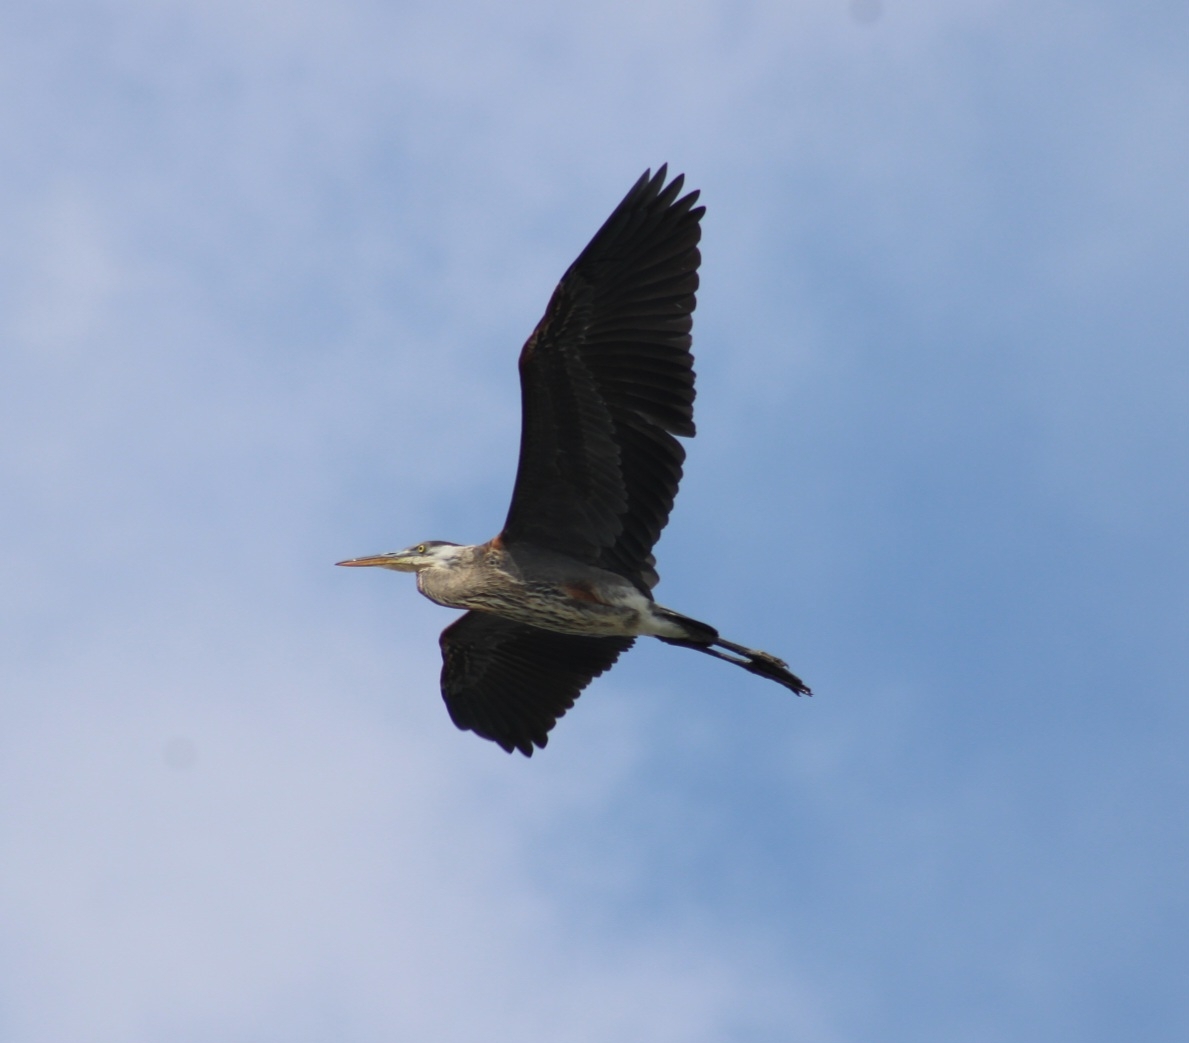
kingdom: Animalia
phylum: Chordata
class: Aves
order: Pelecaniformes
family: Ardeidae
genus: Ardea
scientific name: Ardea herodias
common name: Great blue heron
